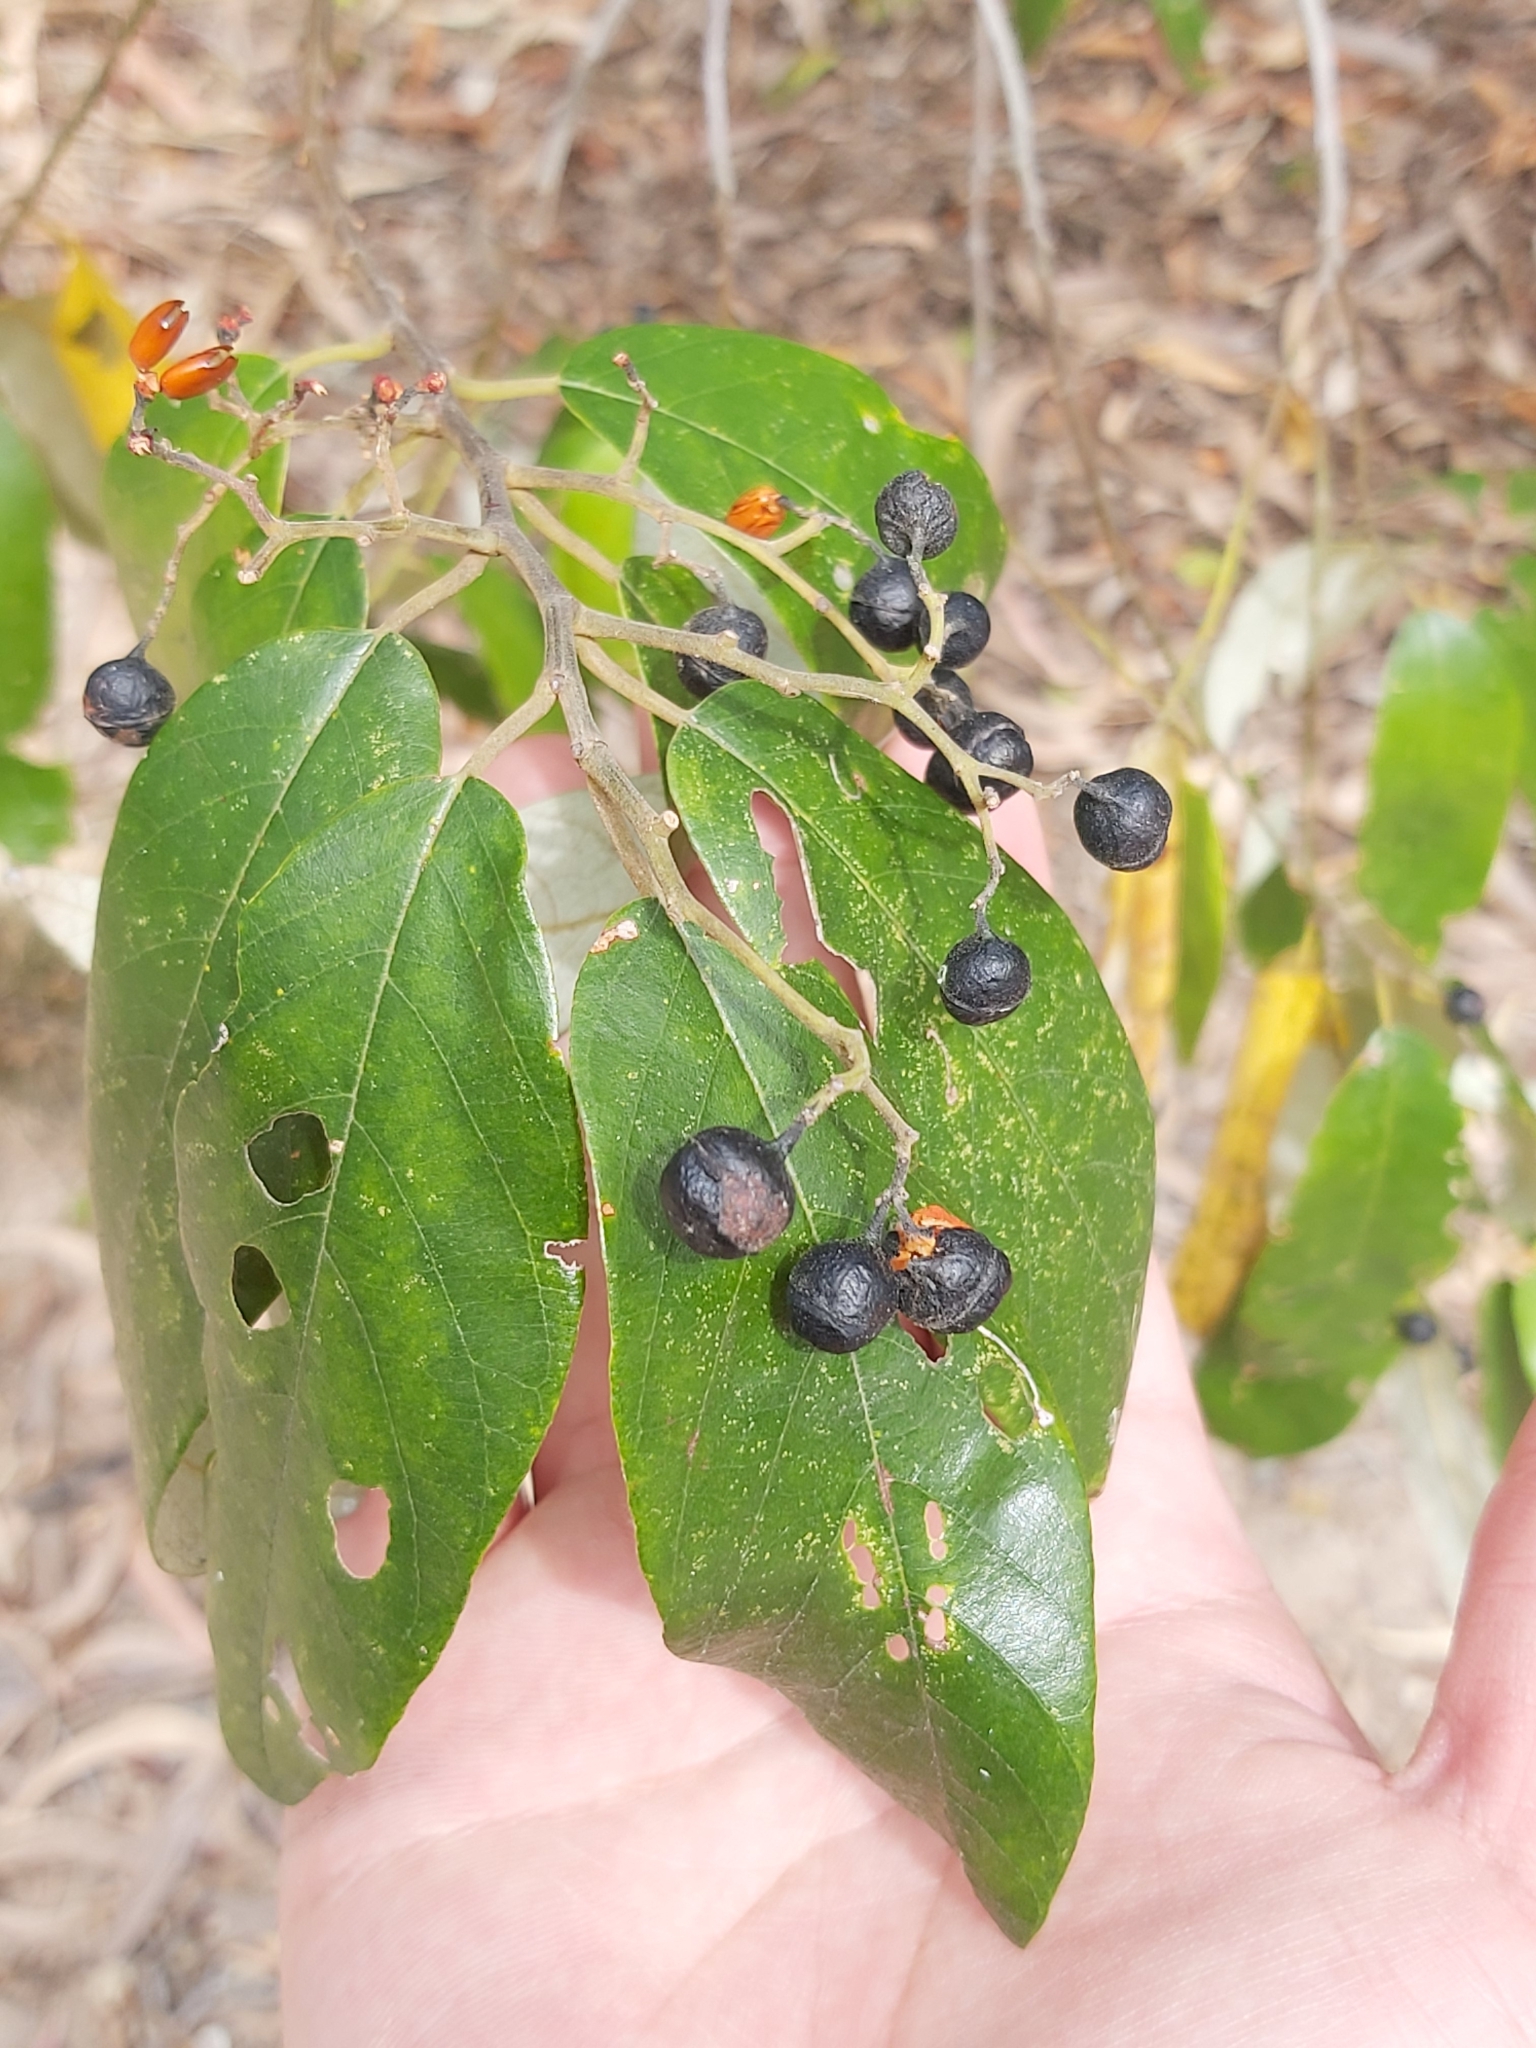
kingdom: Plantae
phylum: Tracheophyta
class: Magnoliopsida
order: Rosales
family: Rhamnaceae
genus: Alphitonia
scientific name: Alphitonia excelsa
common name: Red ash
